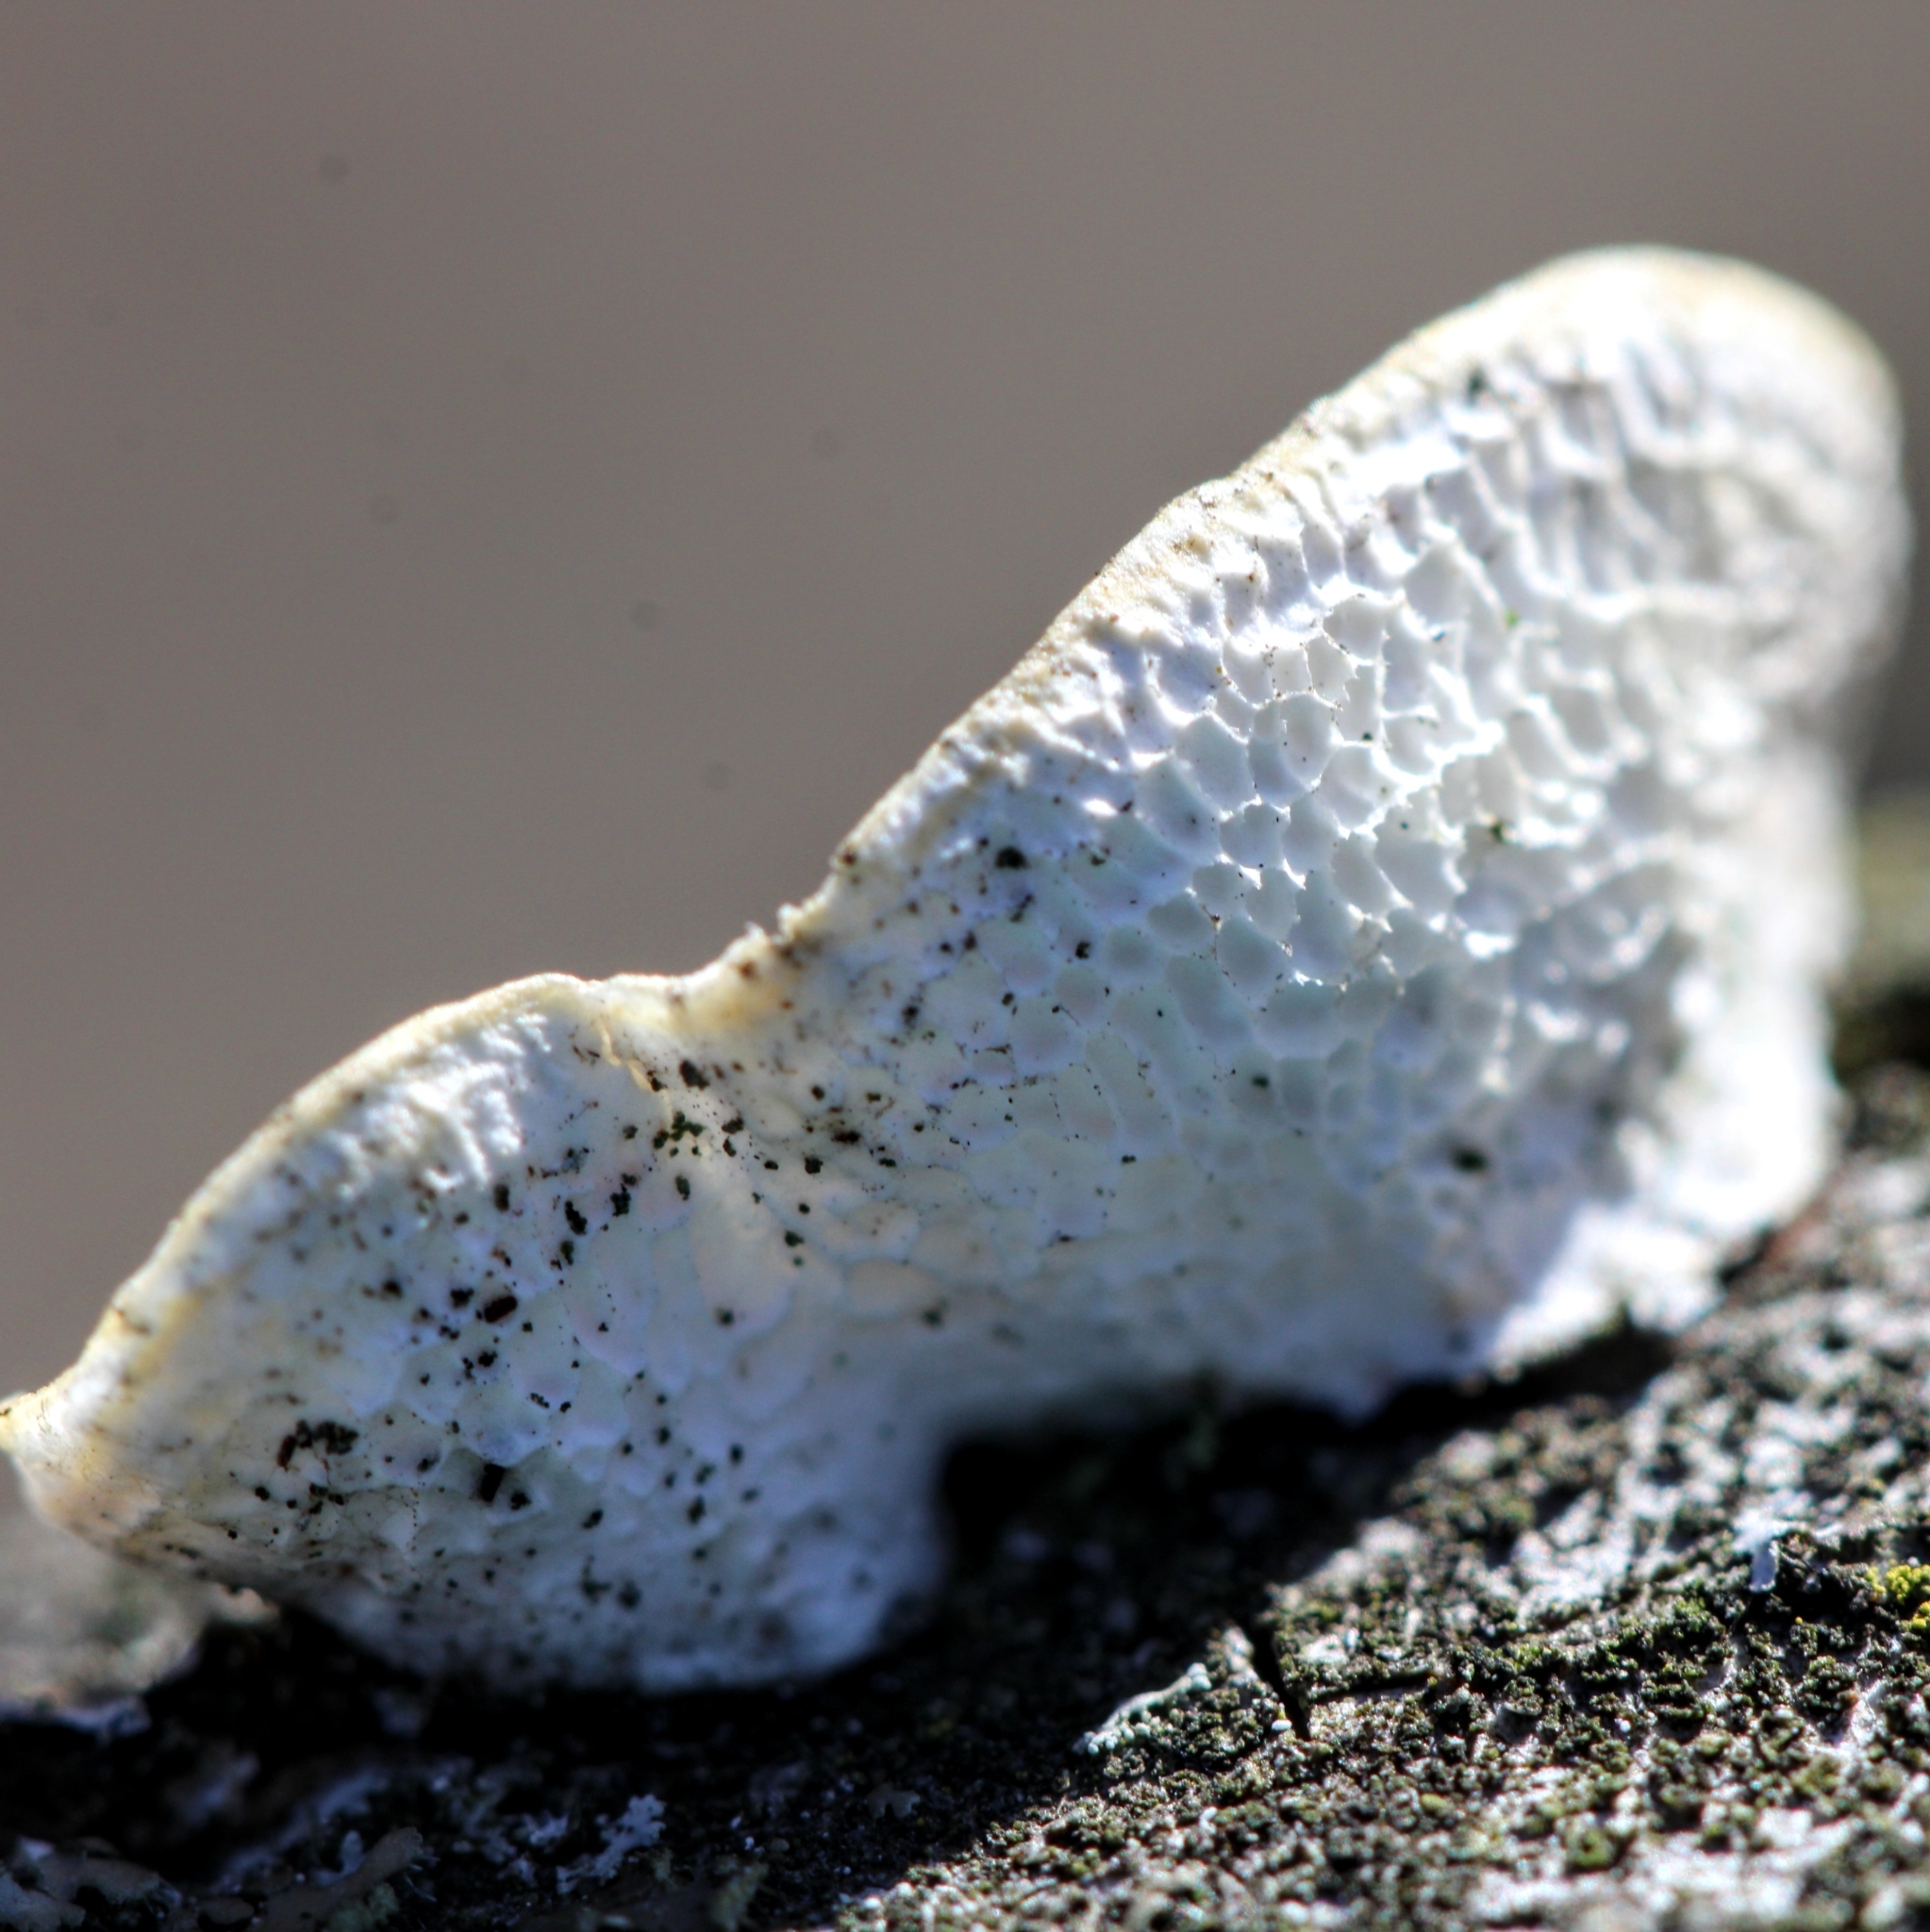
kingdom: Fungi
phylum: Basidiomycota
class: Agaricomycetes
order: Polyporales
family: Polyporaceae
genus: Poronidulus
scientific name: Poronidulus conchifer
